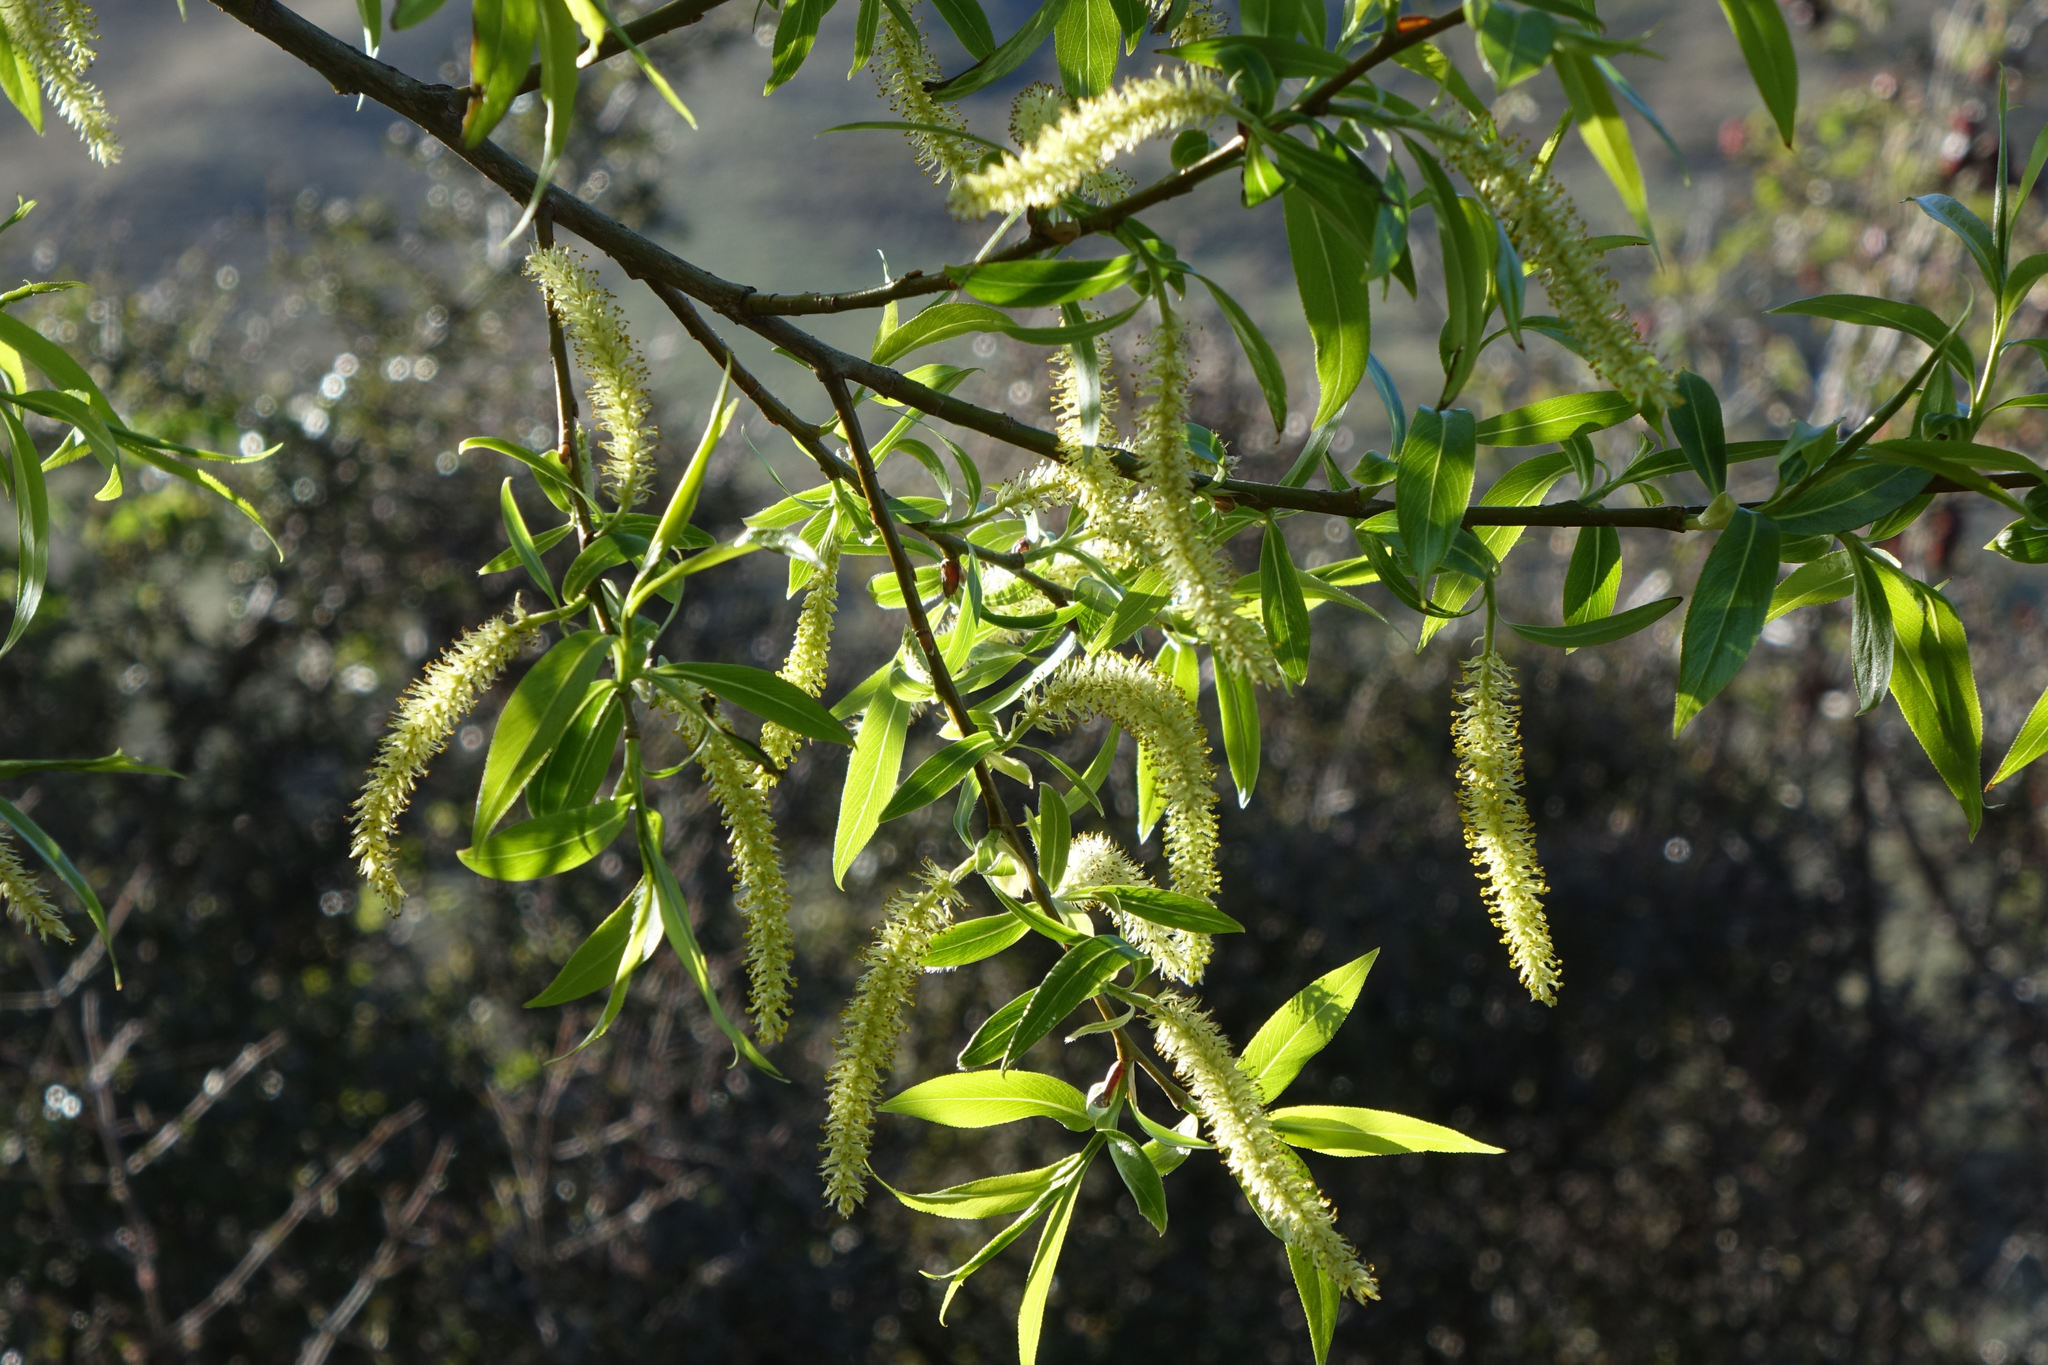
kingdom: Plantae
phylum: Tracheophyta
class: Magnoliopsida
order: Malpighiales
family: Salicaceae
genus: Salix
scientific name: Salix fragilis
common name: Crack willow
